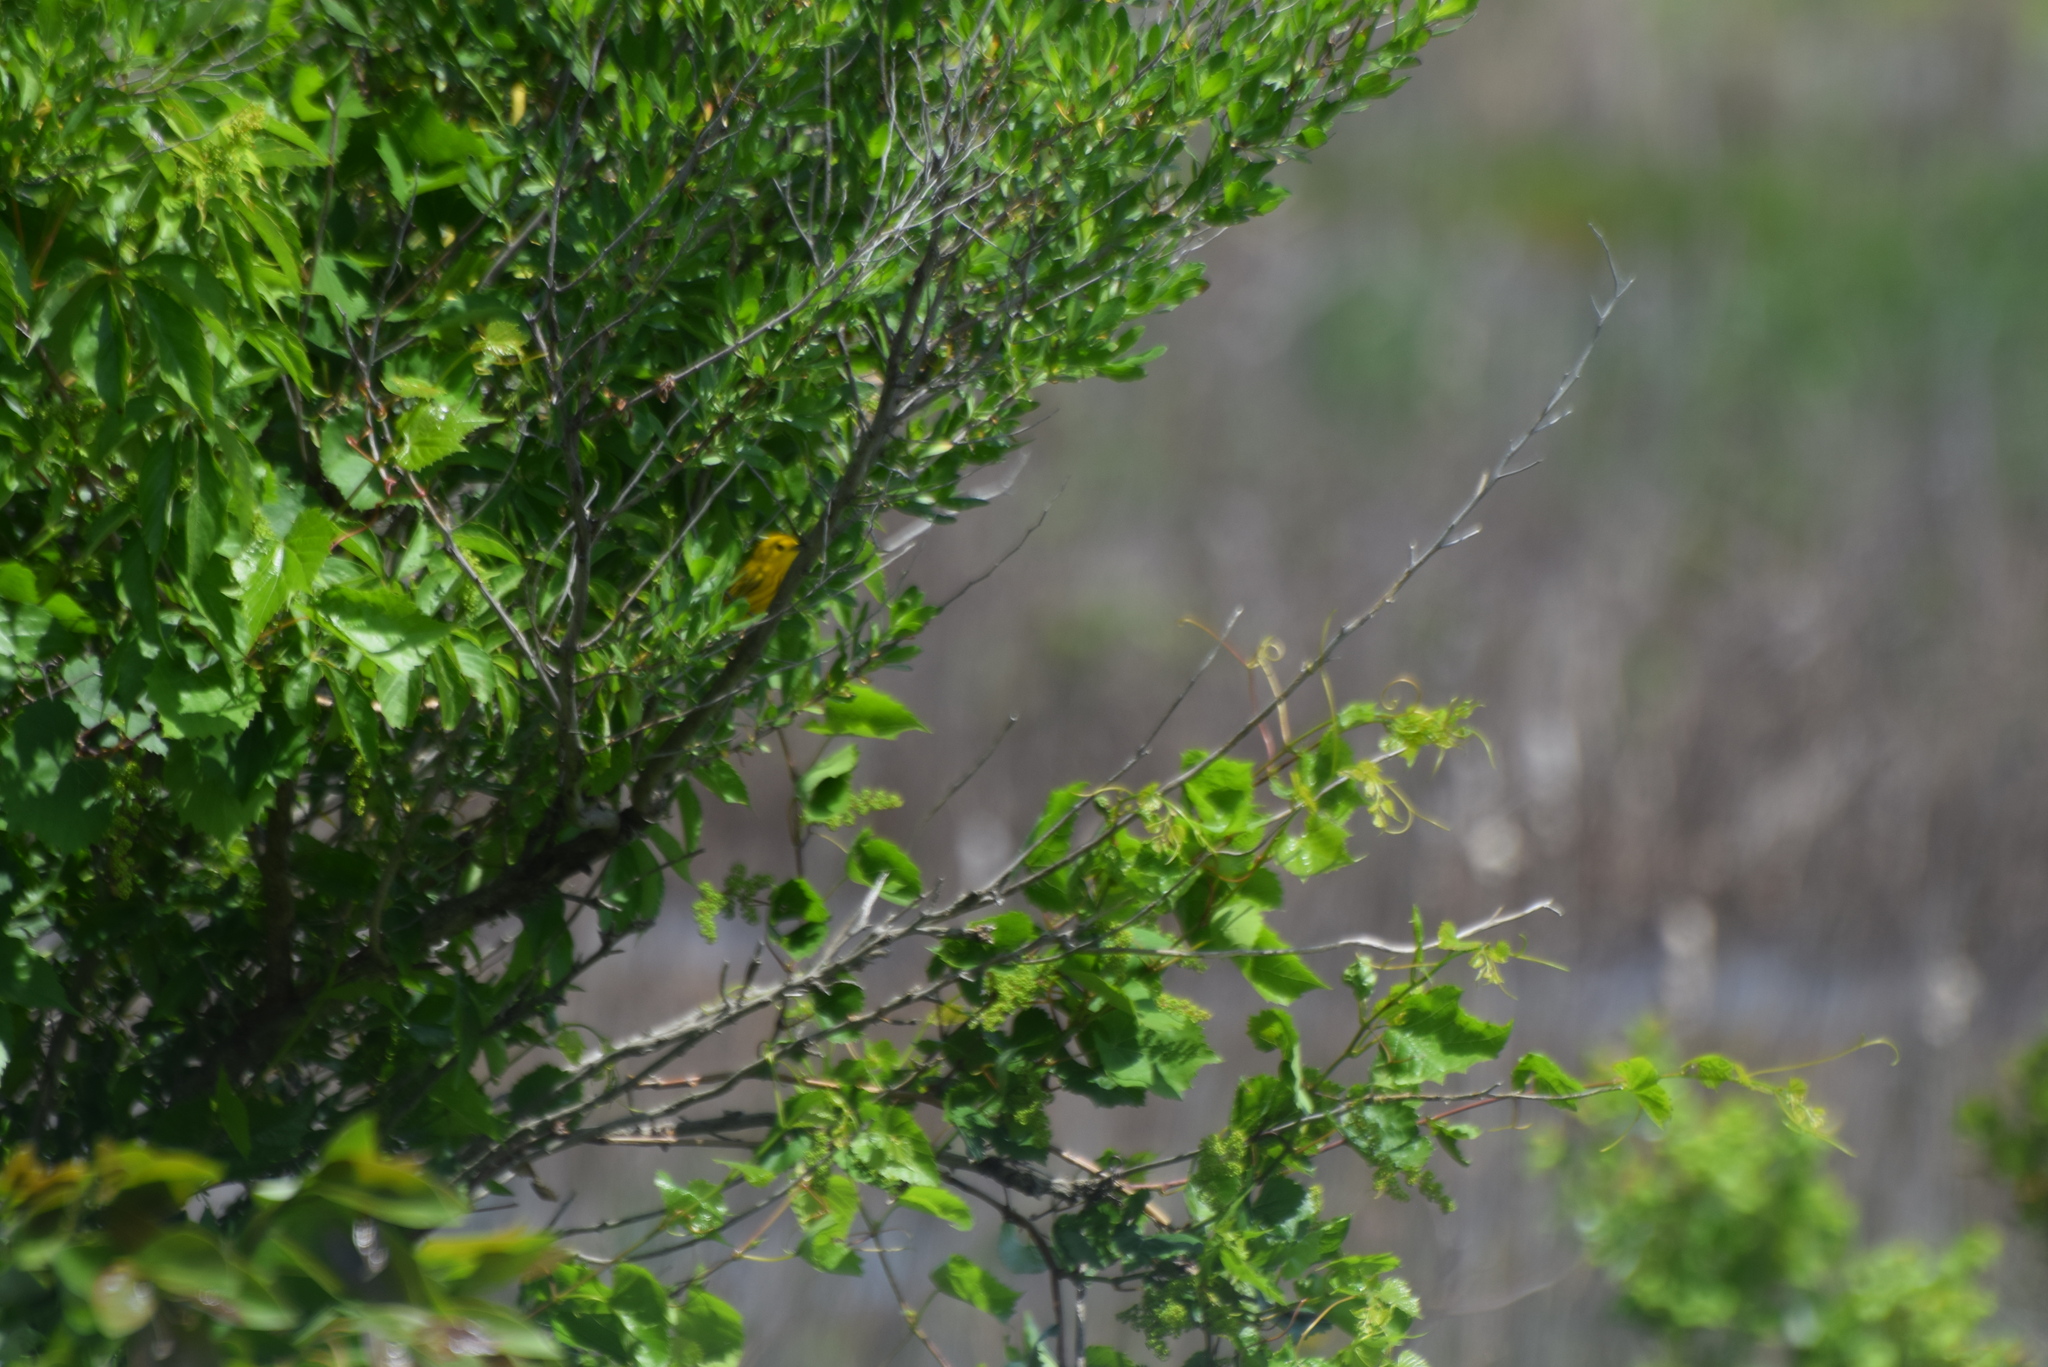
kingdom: Animalia
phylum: Chordata
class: Aves
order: Passeriformes
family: Parulidae
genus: Setophaga
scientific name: Setophaga petechia
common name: Yellow warbler
